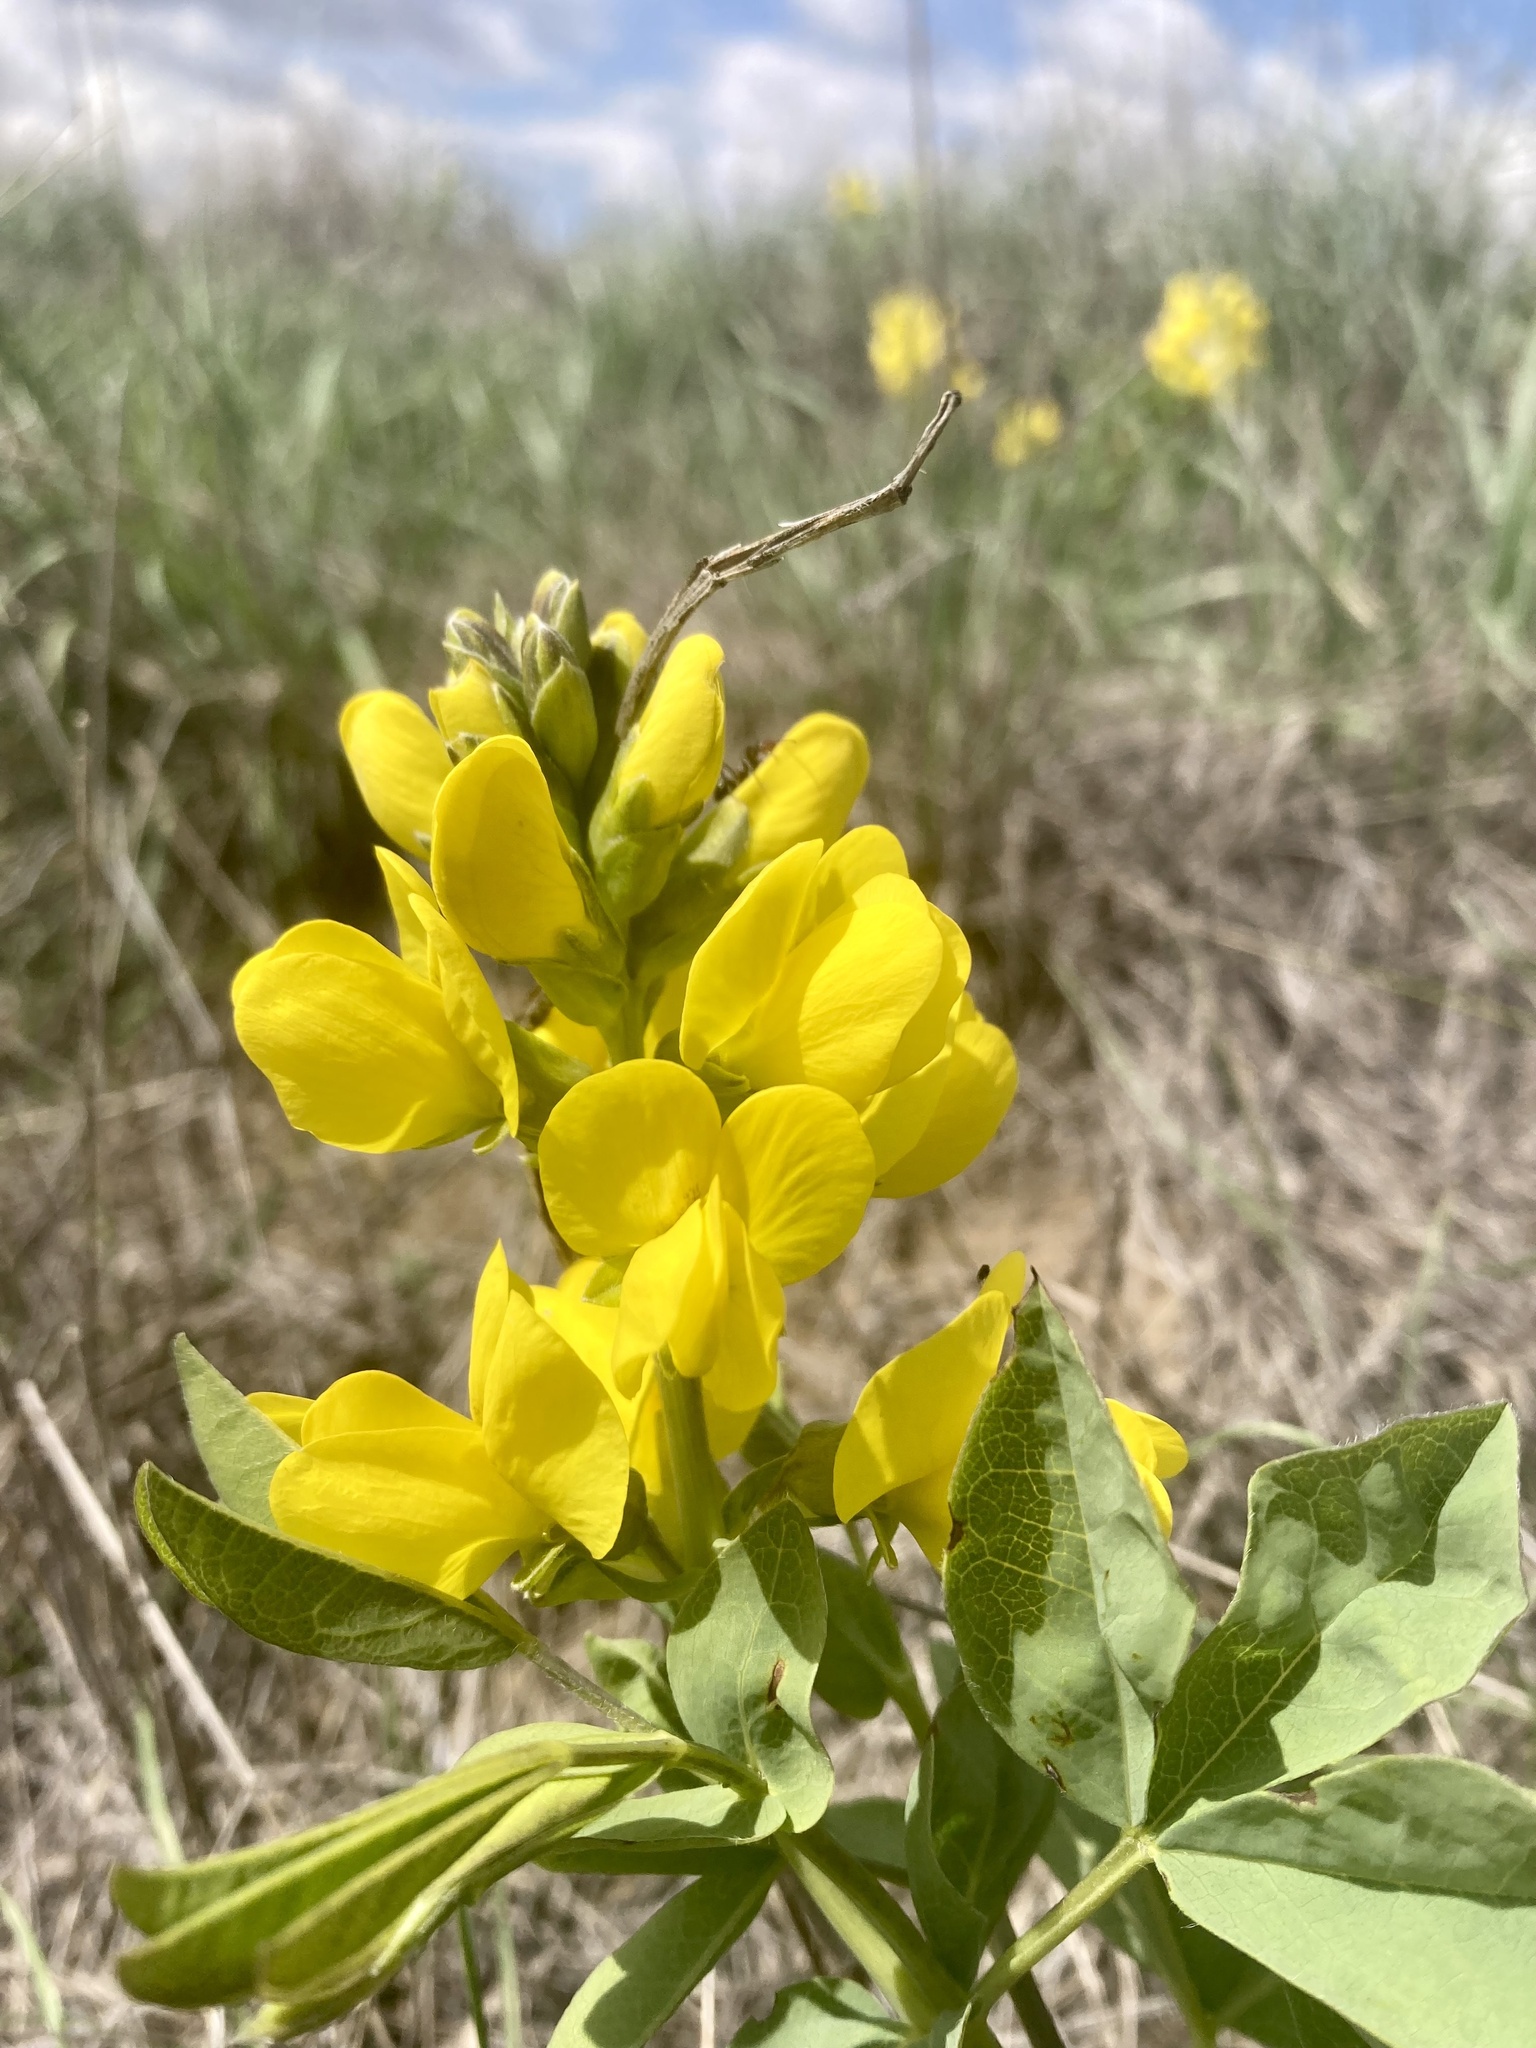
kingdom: Plantae
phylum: Tracheophyta
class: Magnoliopsida
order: Fabales
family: Fabaceae
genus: Thermopsis
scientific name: Thermopsis rhombifolia
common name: Circle-pod-pea
